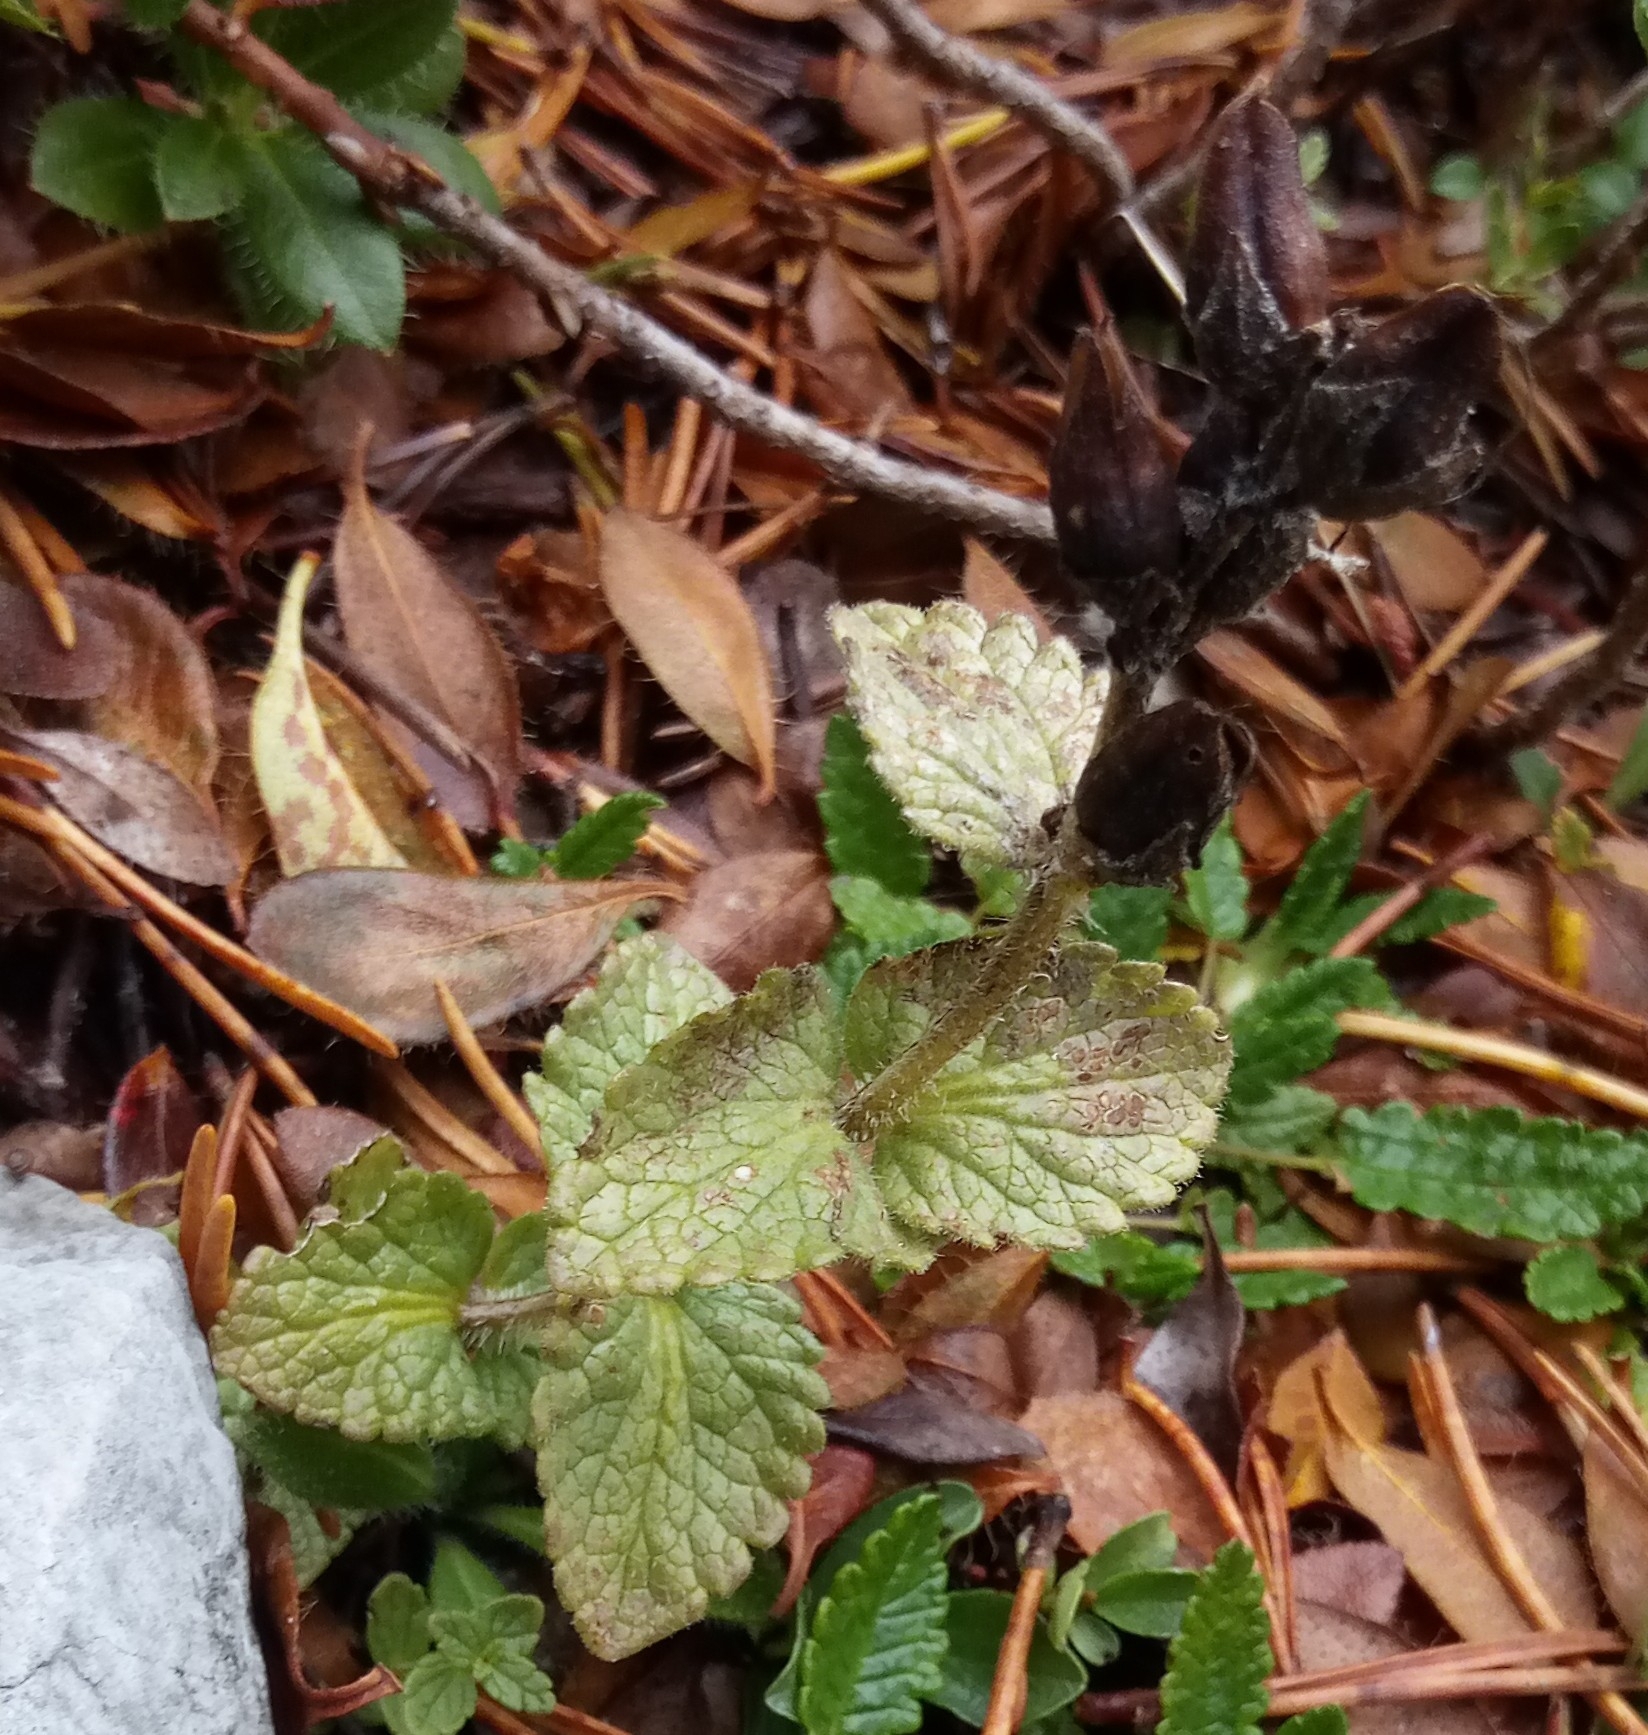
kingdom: Plantae
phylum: Tracheophyta
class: Magnoliopsida
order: Lamiales
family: Orobanchaceae
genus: Bartsia
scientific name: Bartsia alpina
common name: Alpine bartsia
